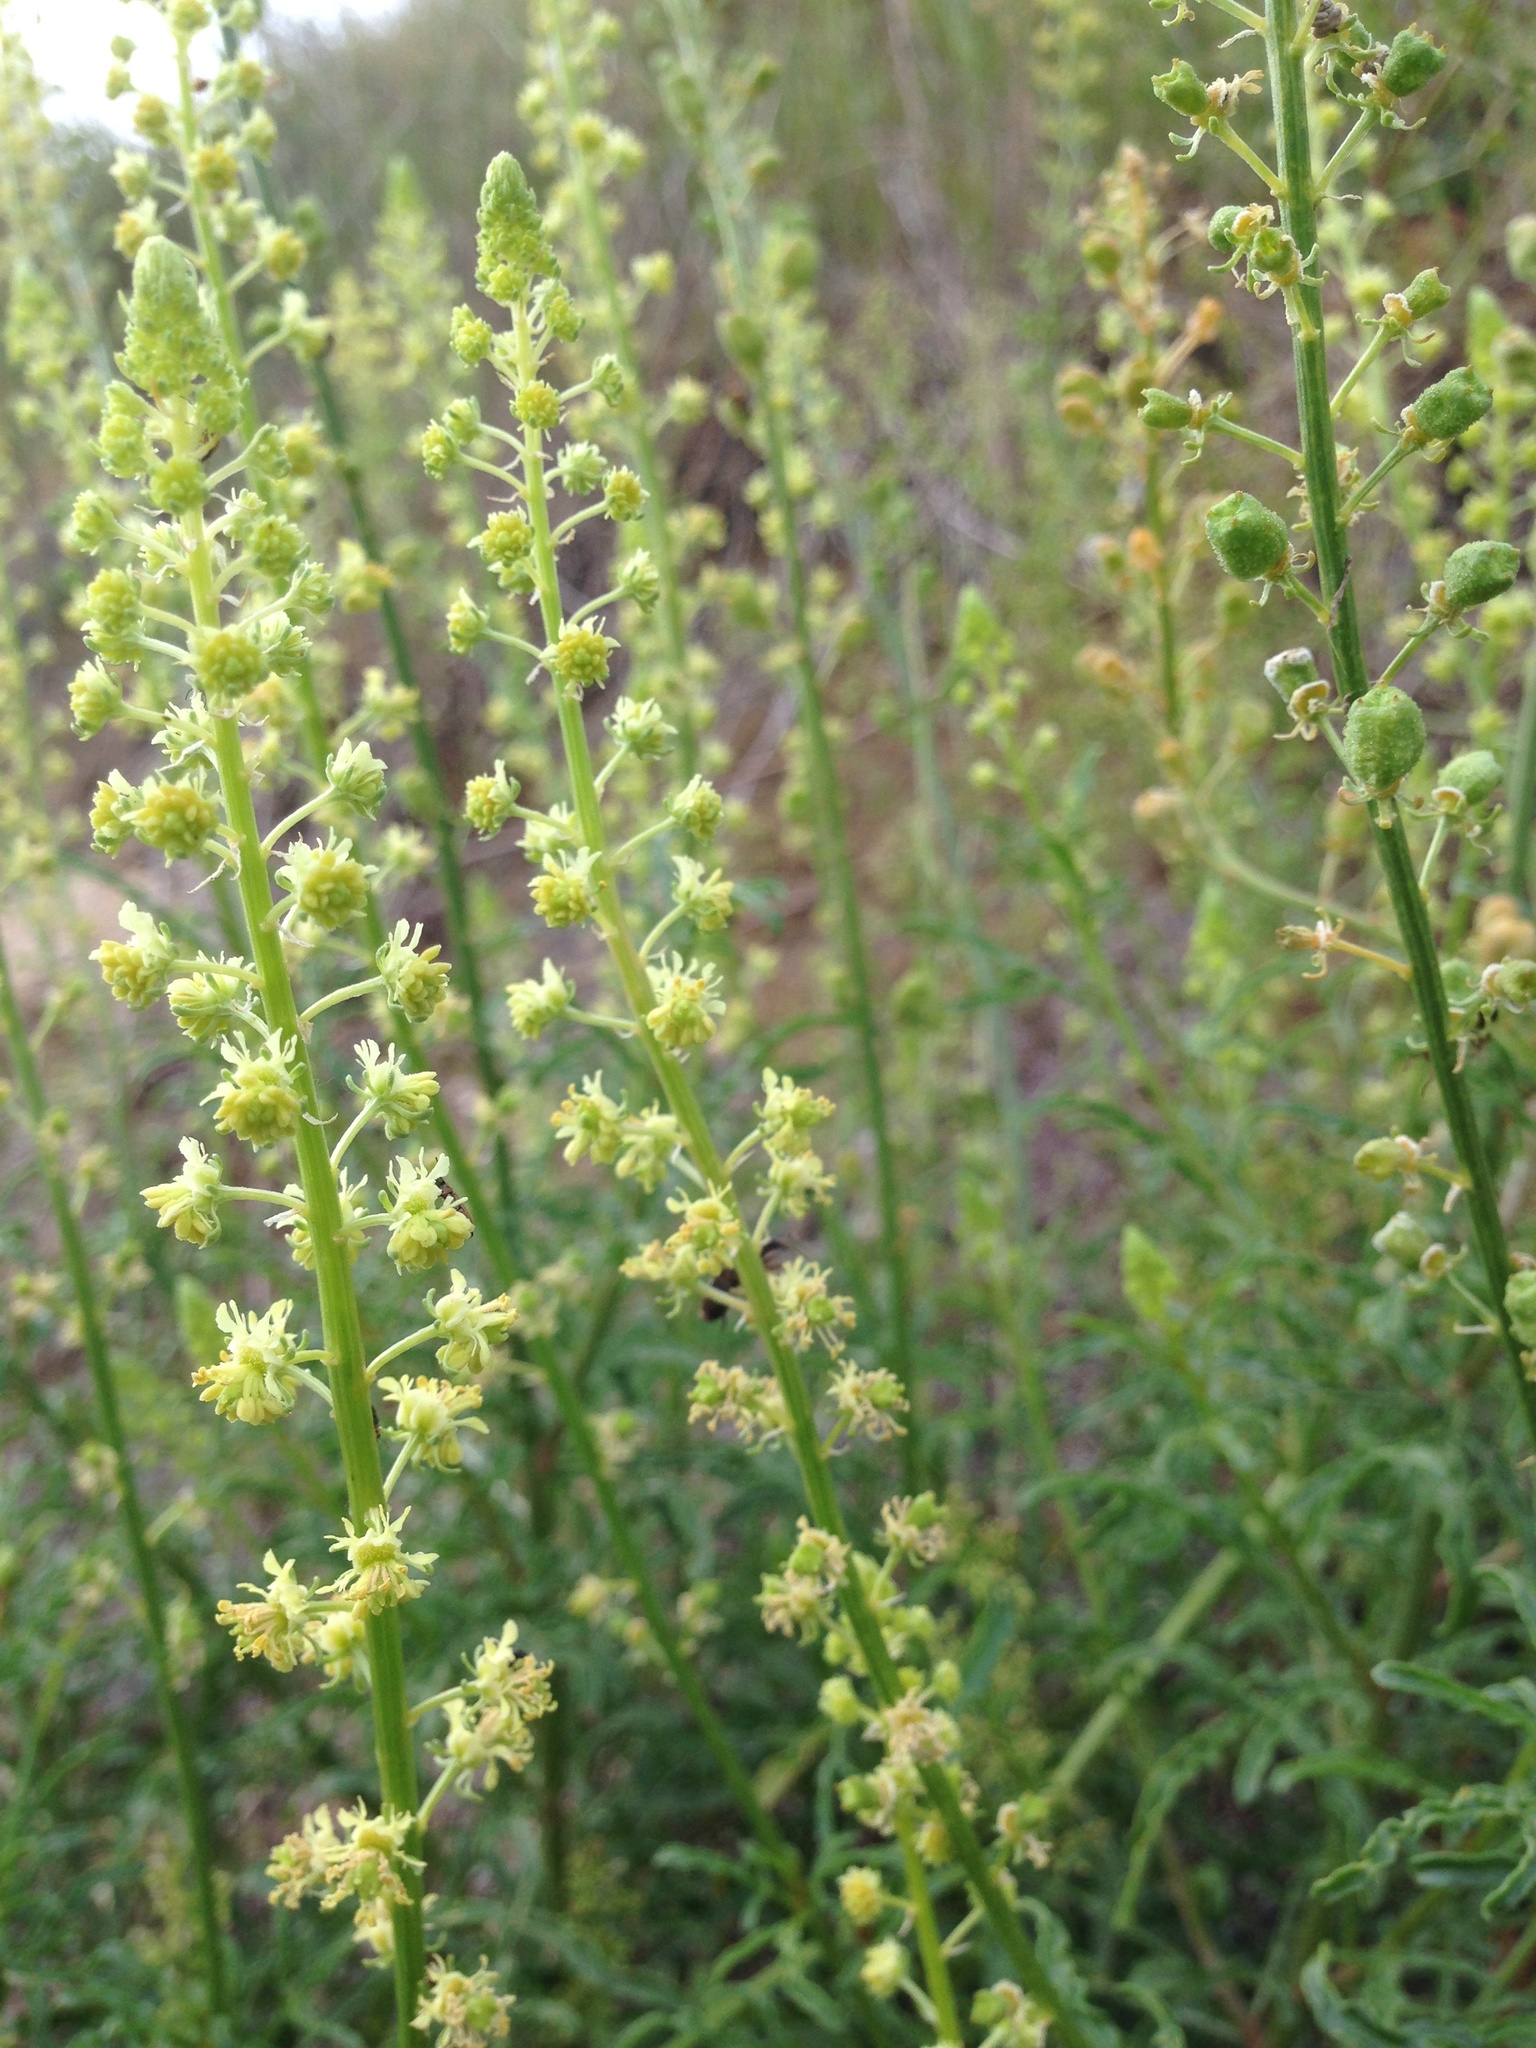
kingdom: Plantae
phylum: Tracheophyta
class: Magnoliopsida
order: Brassicales
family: Resedaceae
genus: Reseda
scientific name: Reseda lutea
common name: Wild mignonette
